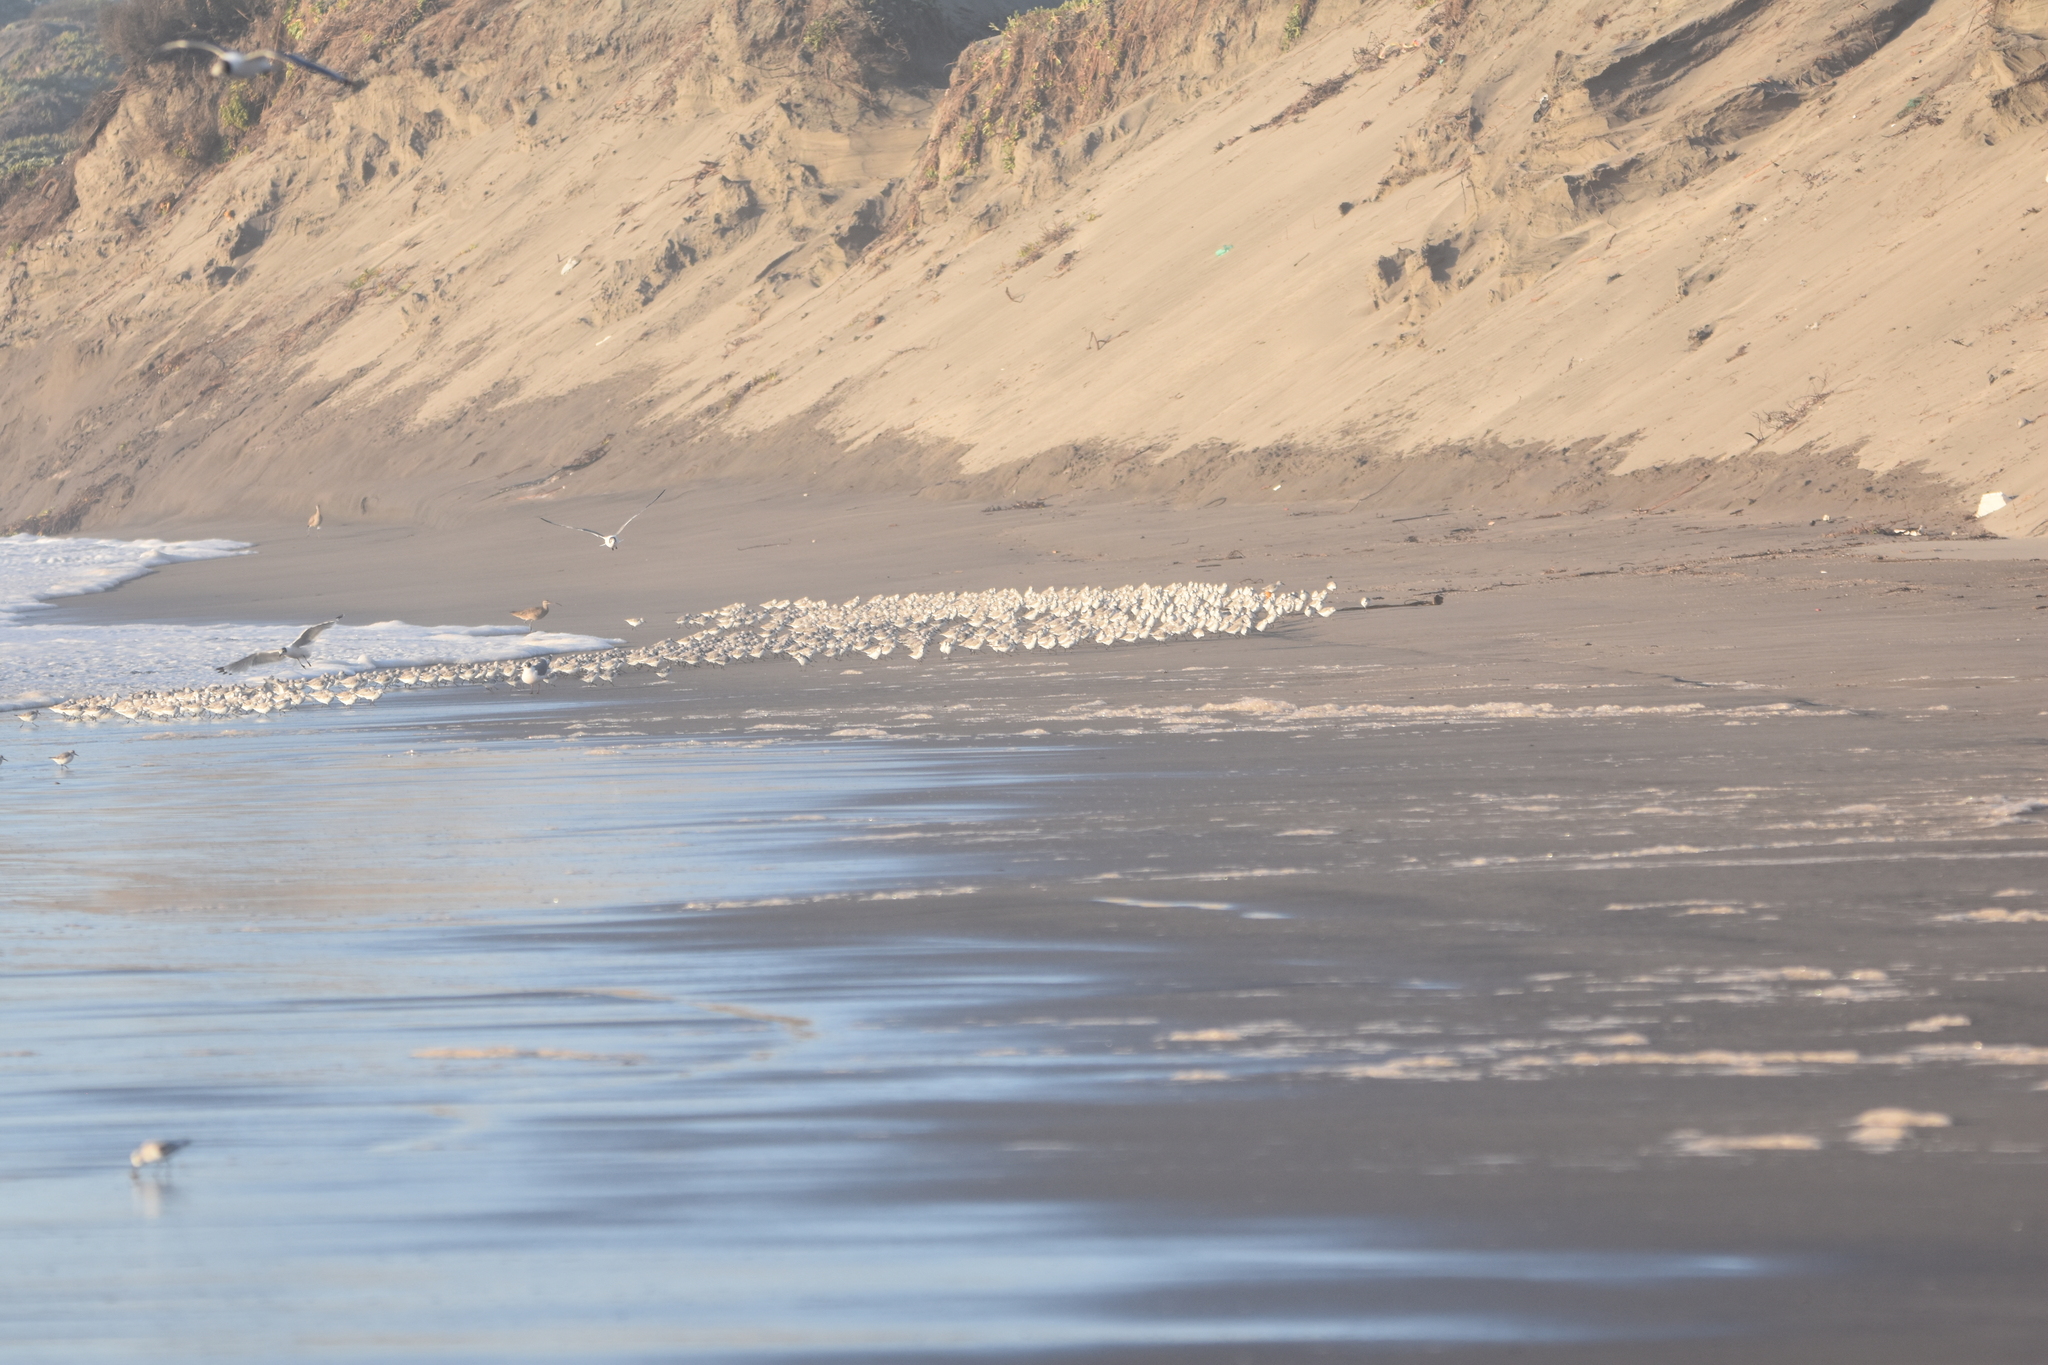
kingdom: Animalia
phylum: Chordata
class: Aves
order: Charadriiformes
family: Scolopacidae
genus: Calidris
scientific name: Calidris alba
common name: Sanderling
